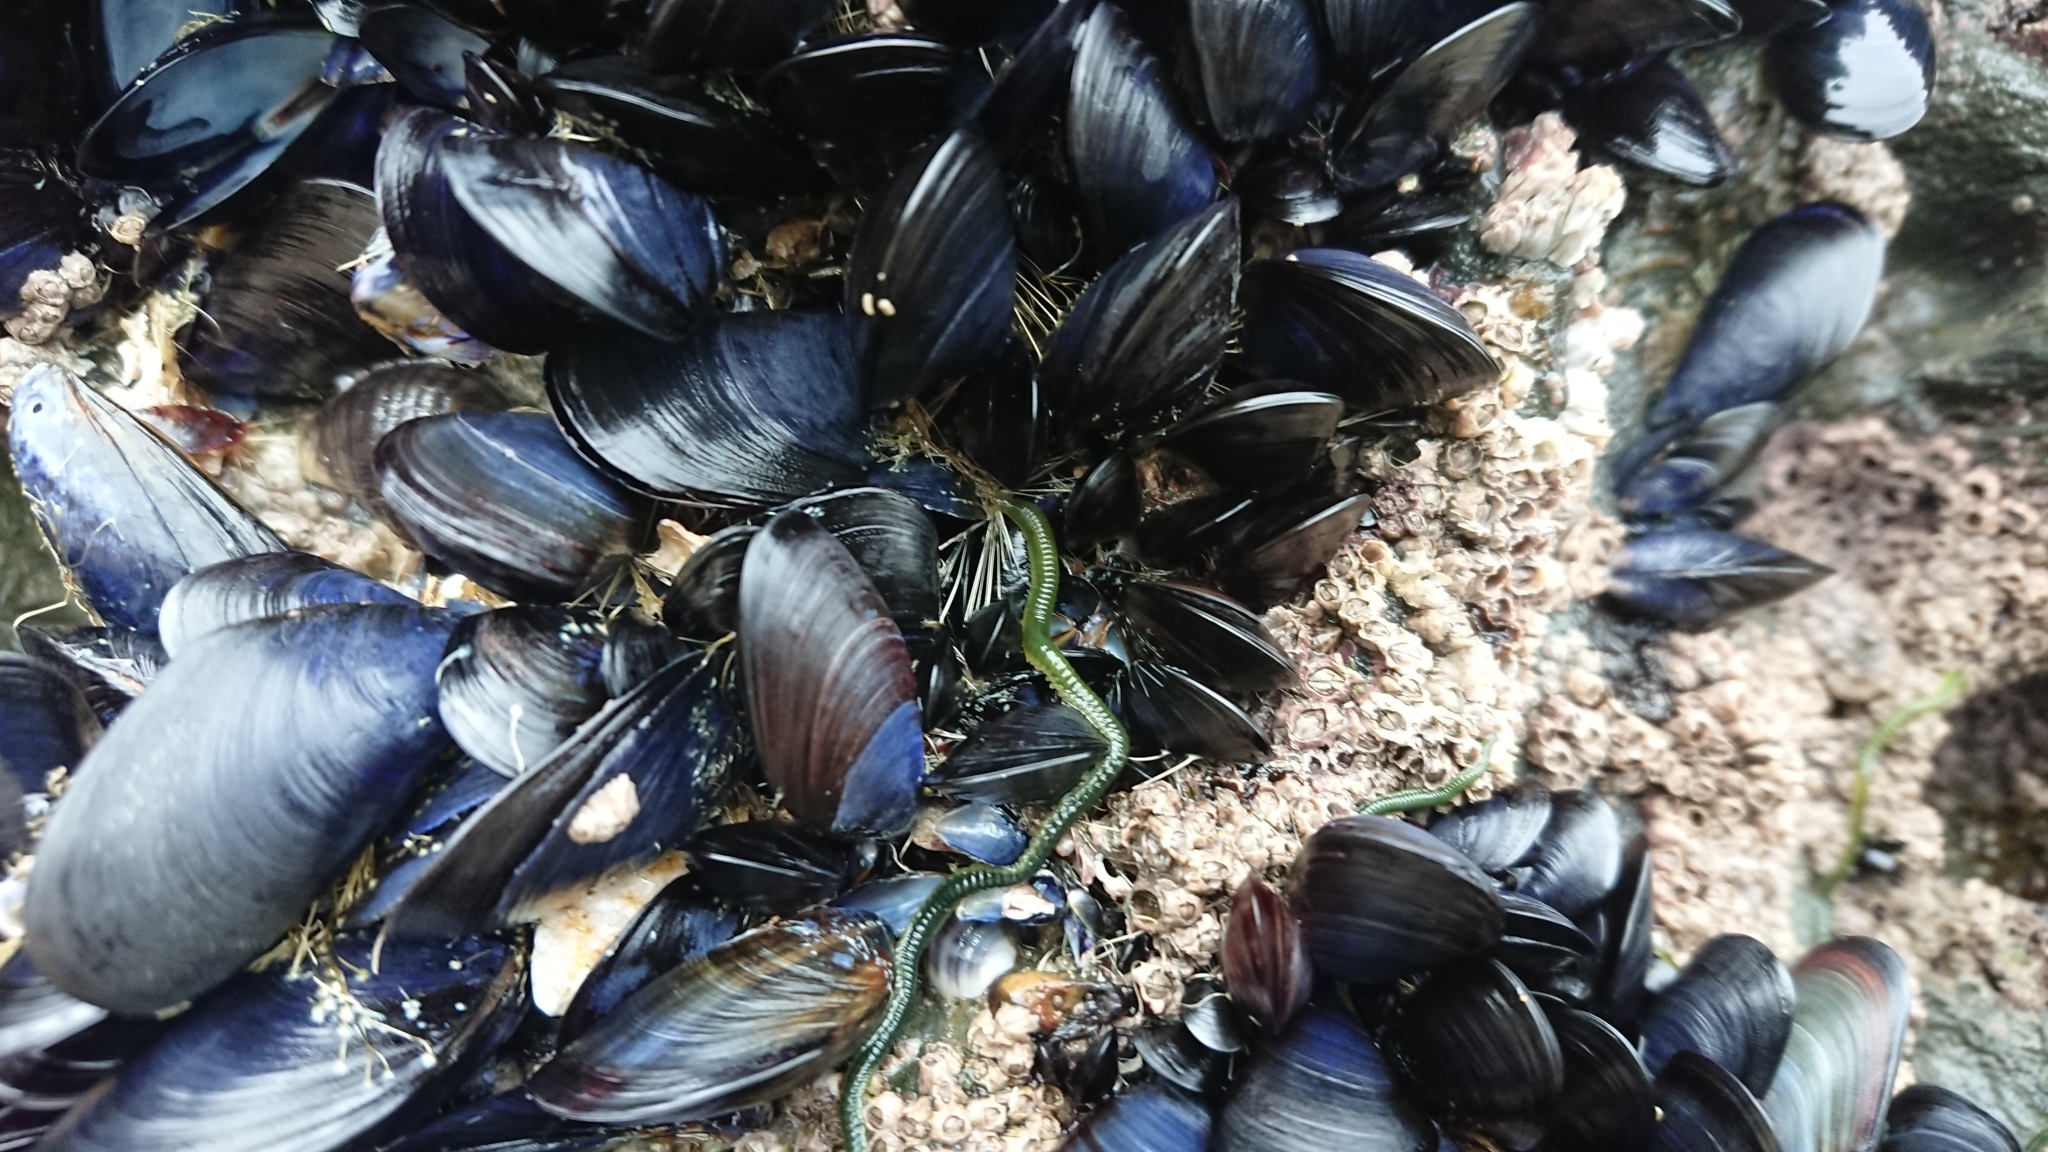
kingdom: Animalia
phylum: Annelida
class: Polychaeta
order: Phyllodocida
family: Phyllodocidae
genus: Eulalia
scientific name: Eulalia clavigera
